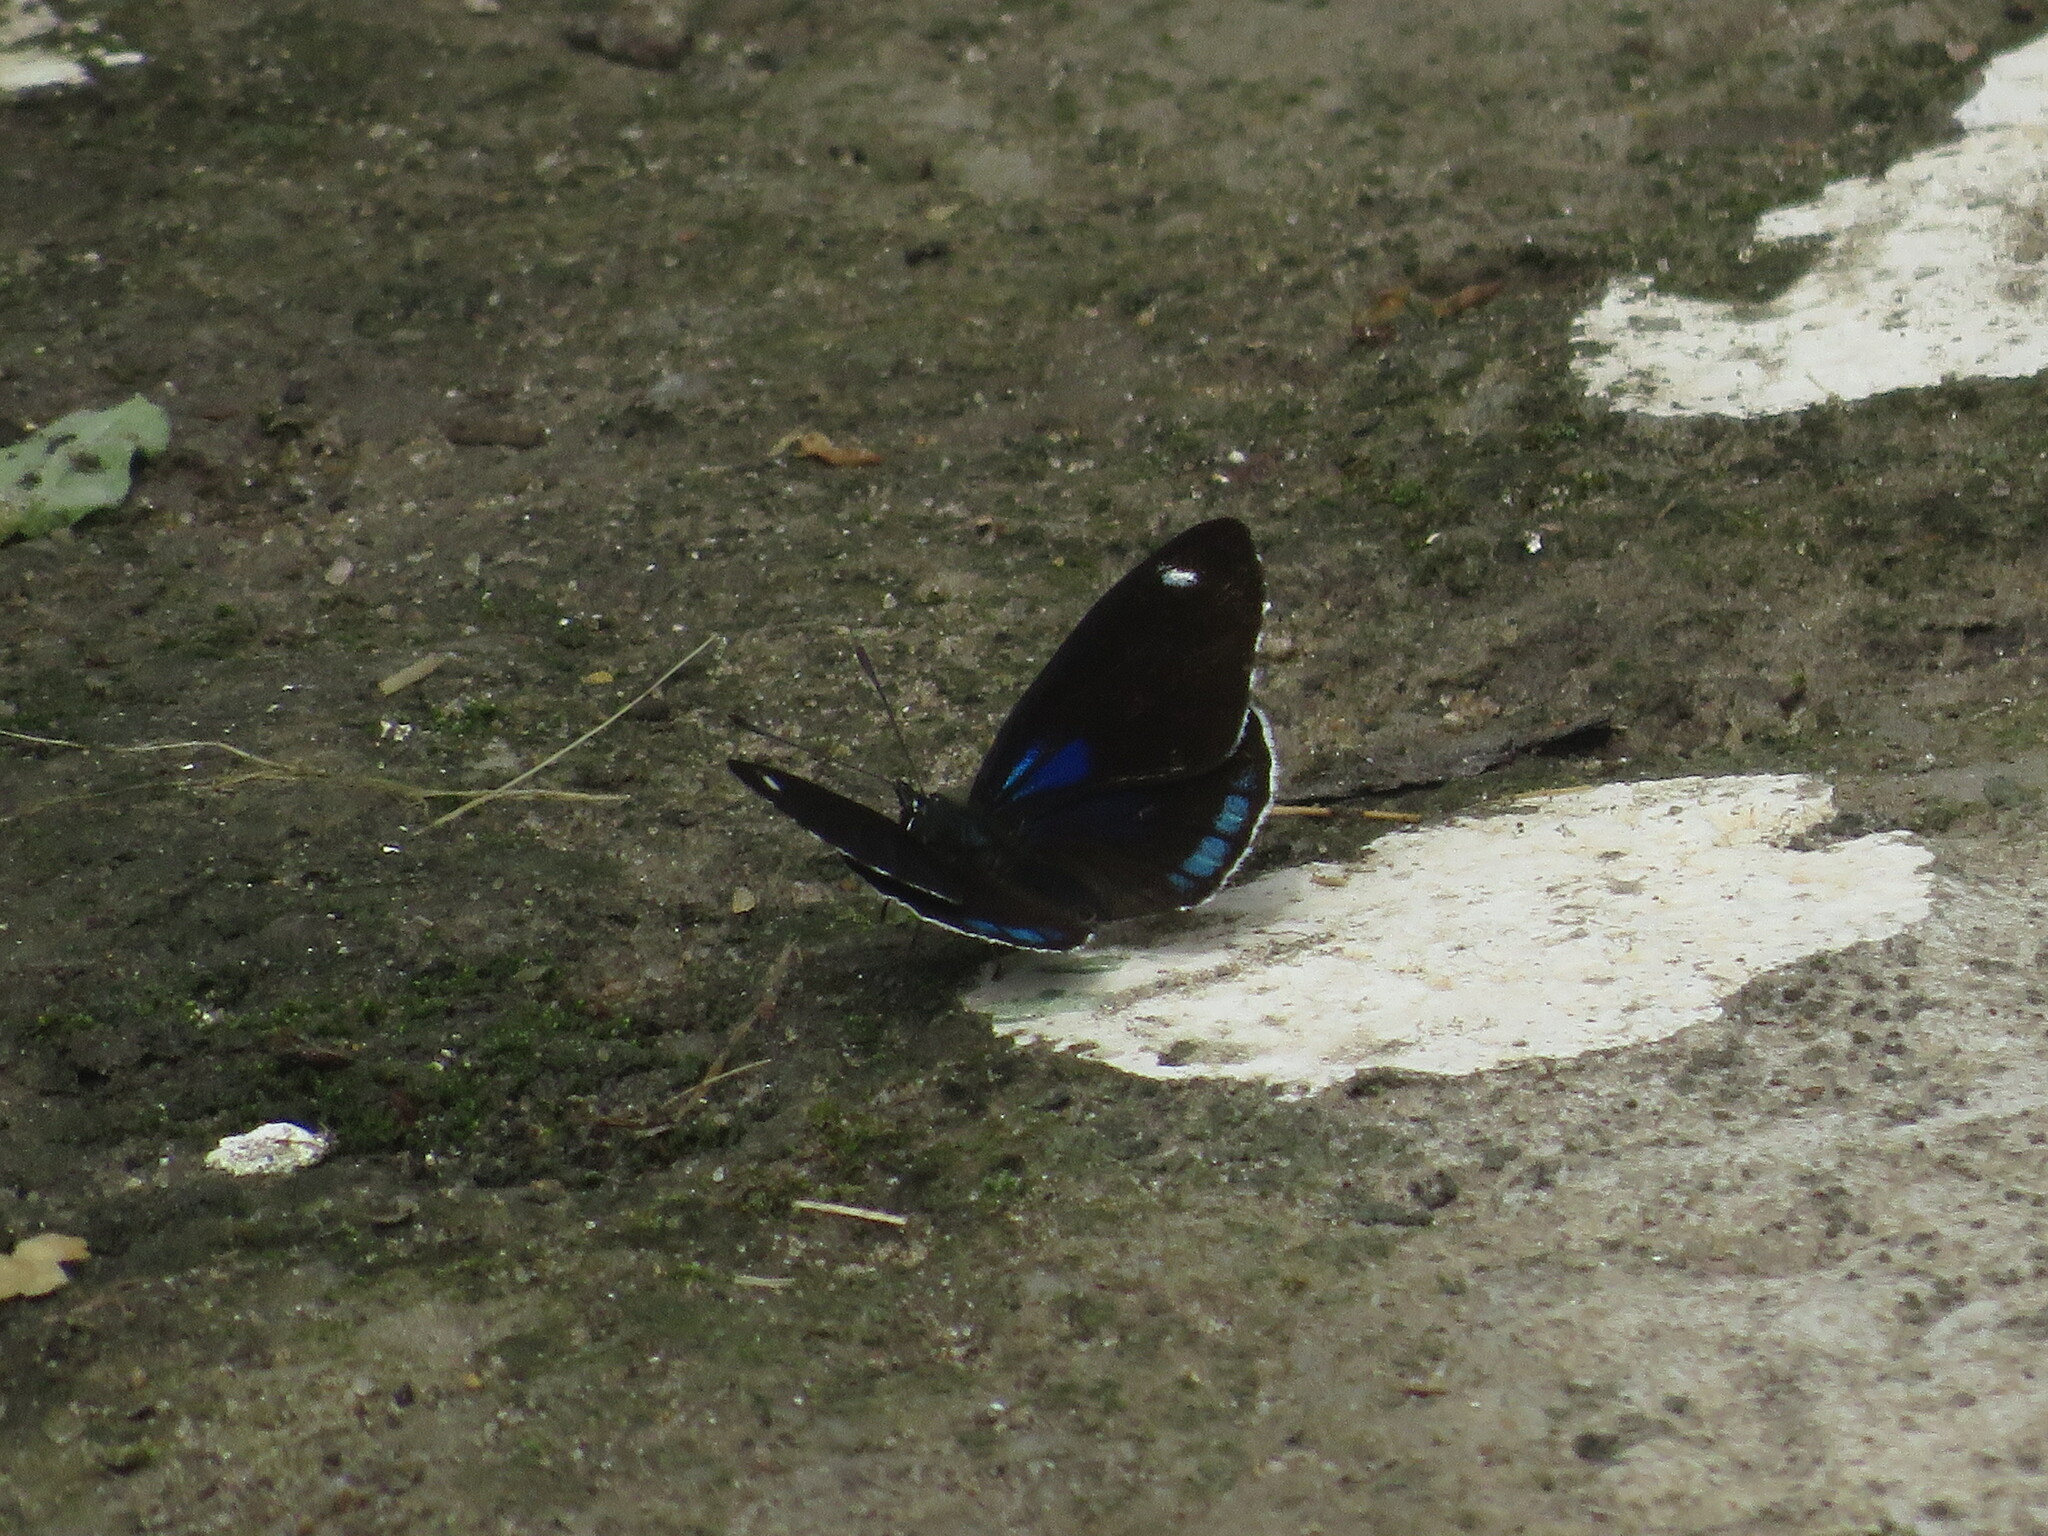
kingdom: Animalia
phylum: Arthropoda
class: Insecta
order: Lepidoptera
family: Nymphalidae
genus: Diaethria
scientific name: Diaethria candrena
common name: Number eighty
